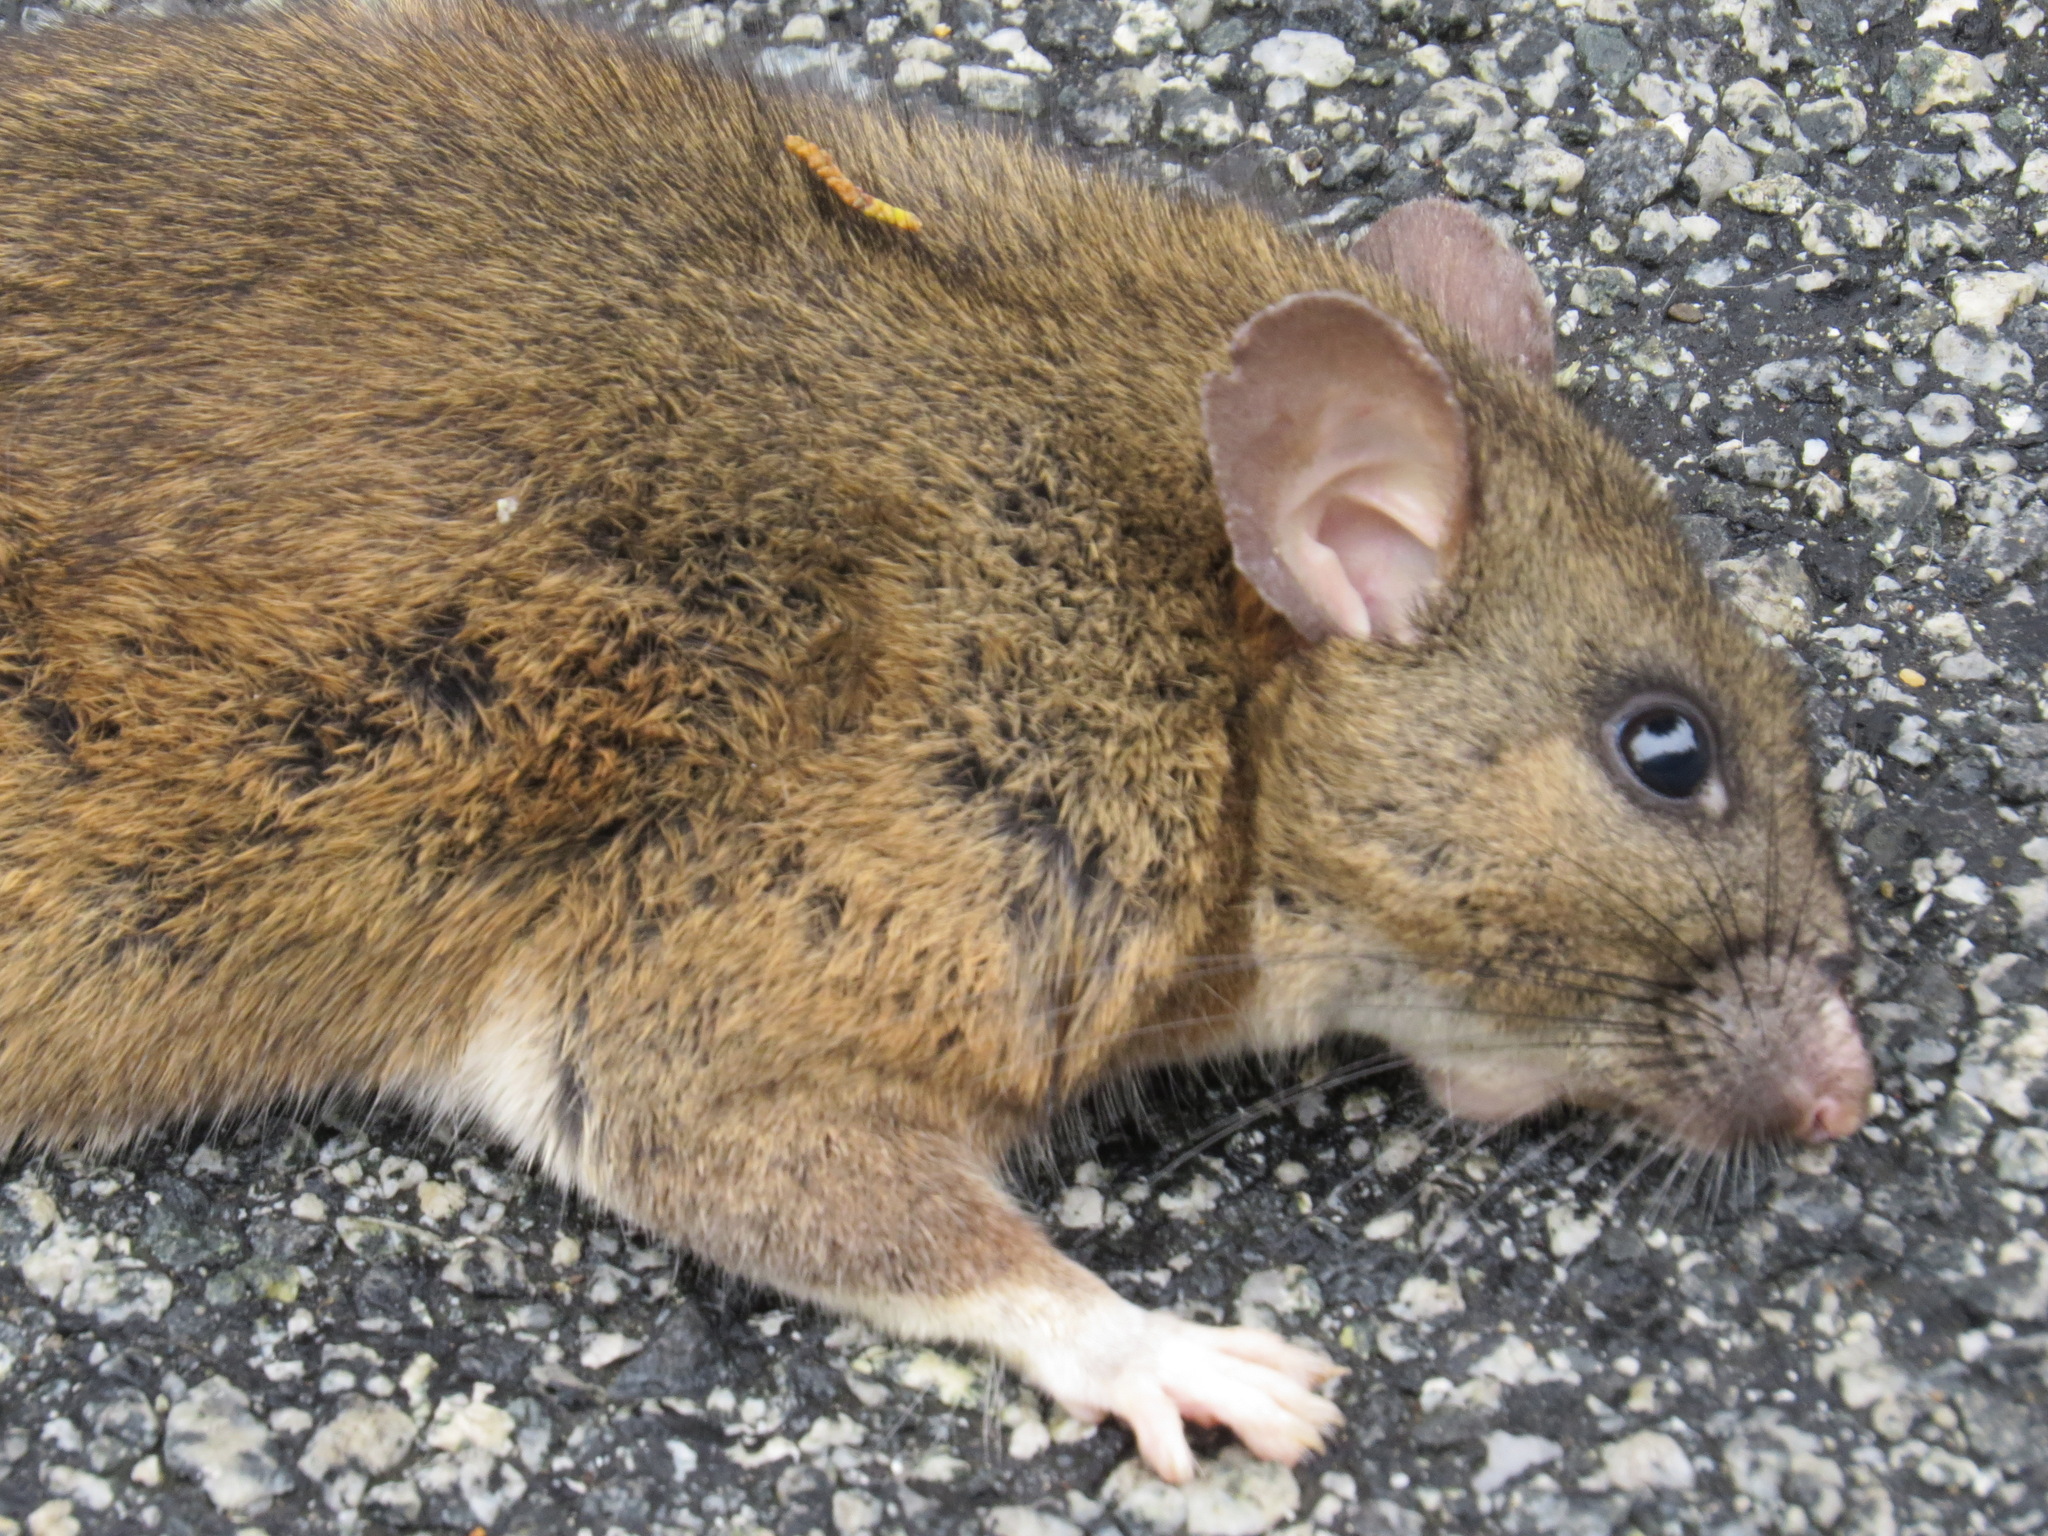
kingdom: Animalia
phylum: Chordata
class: Mammalia
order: Rodentia
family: Cricetidae
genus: Neotoma
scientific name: Neotoma fuscipes
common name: Dusky-footed woodrat
